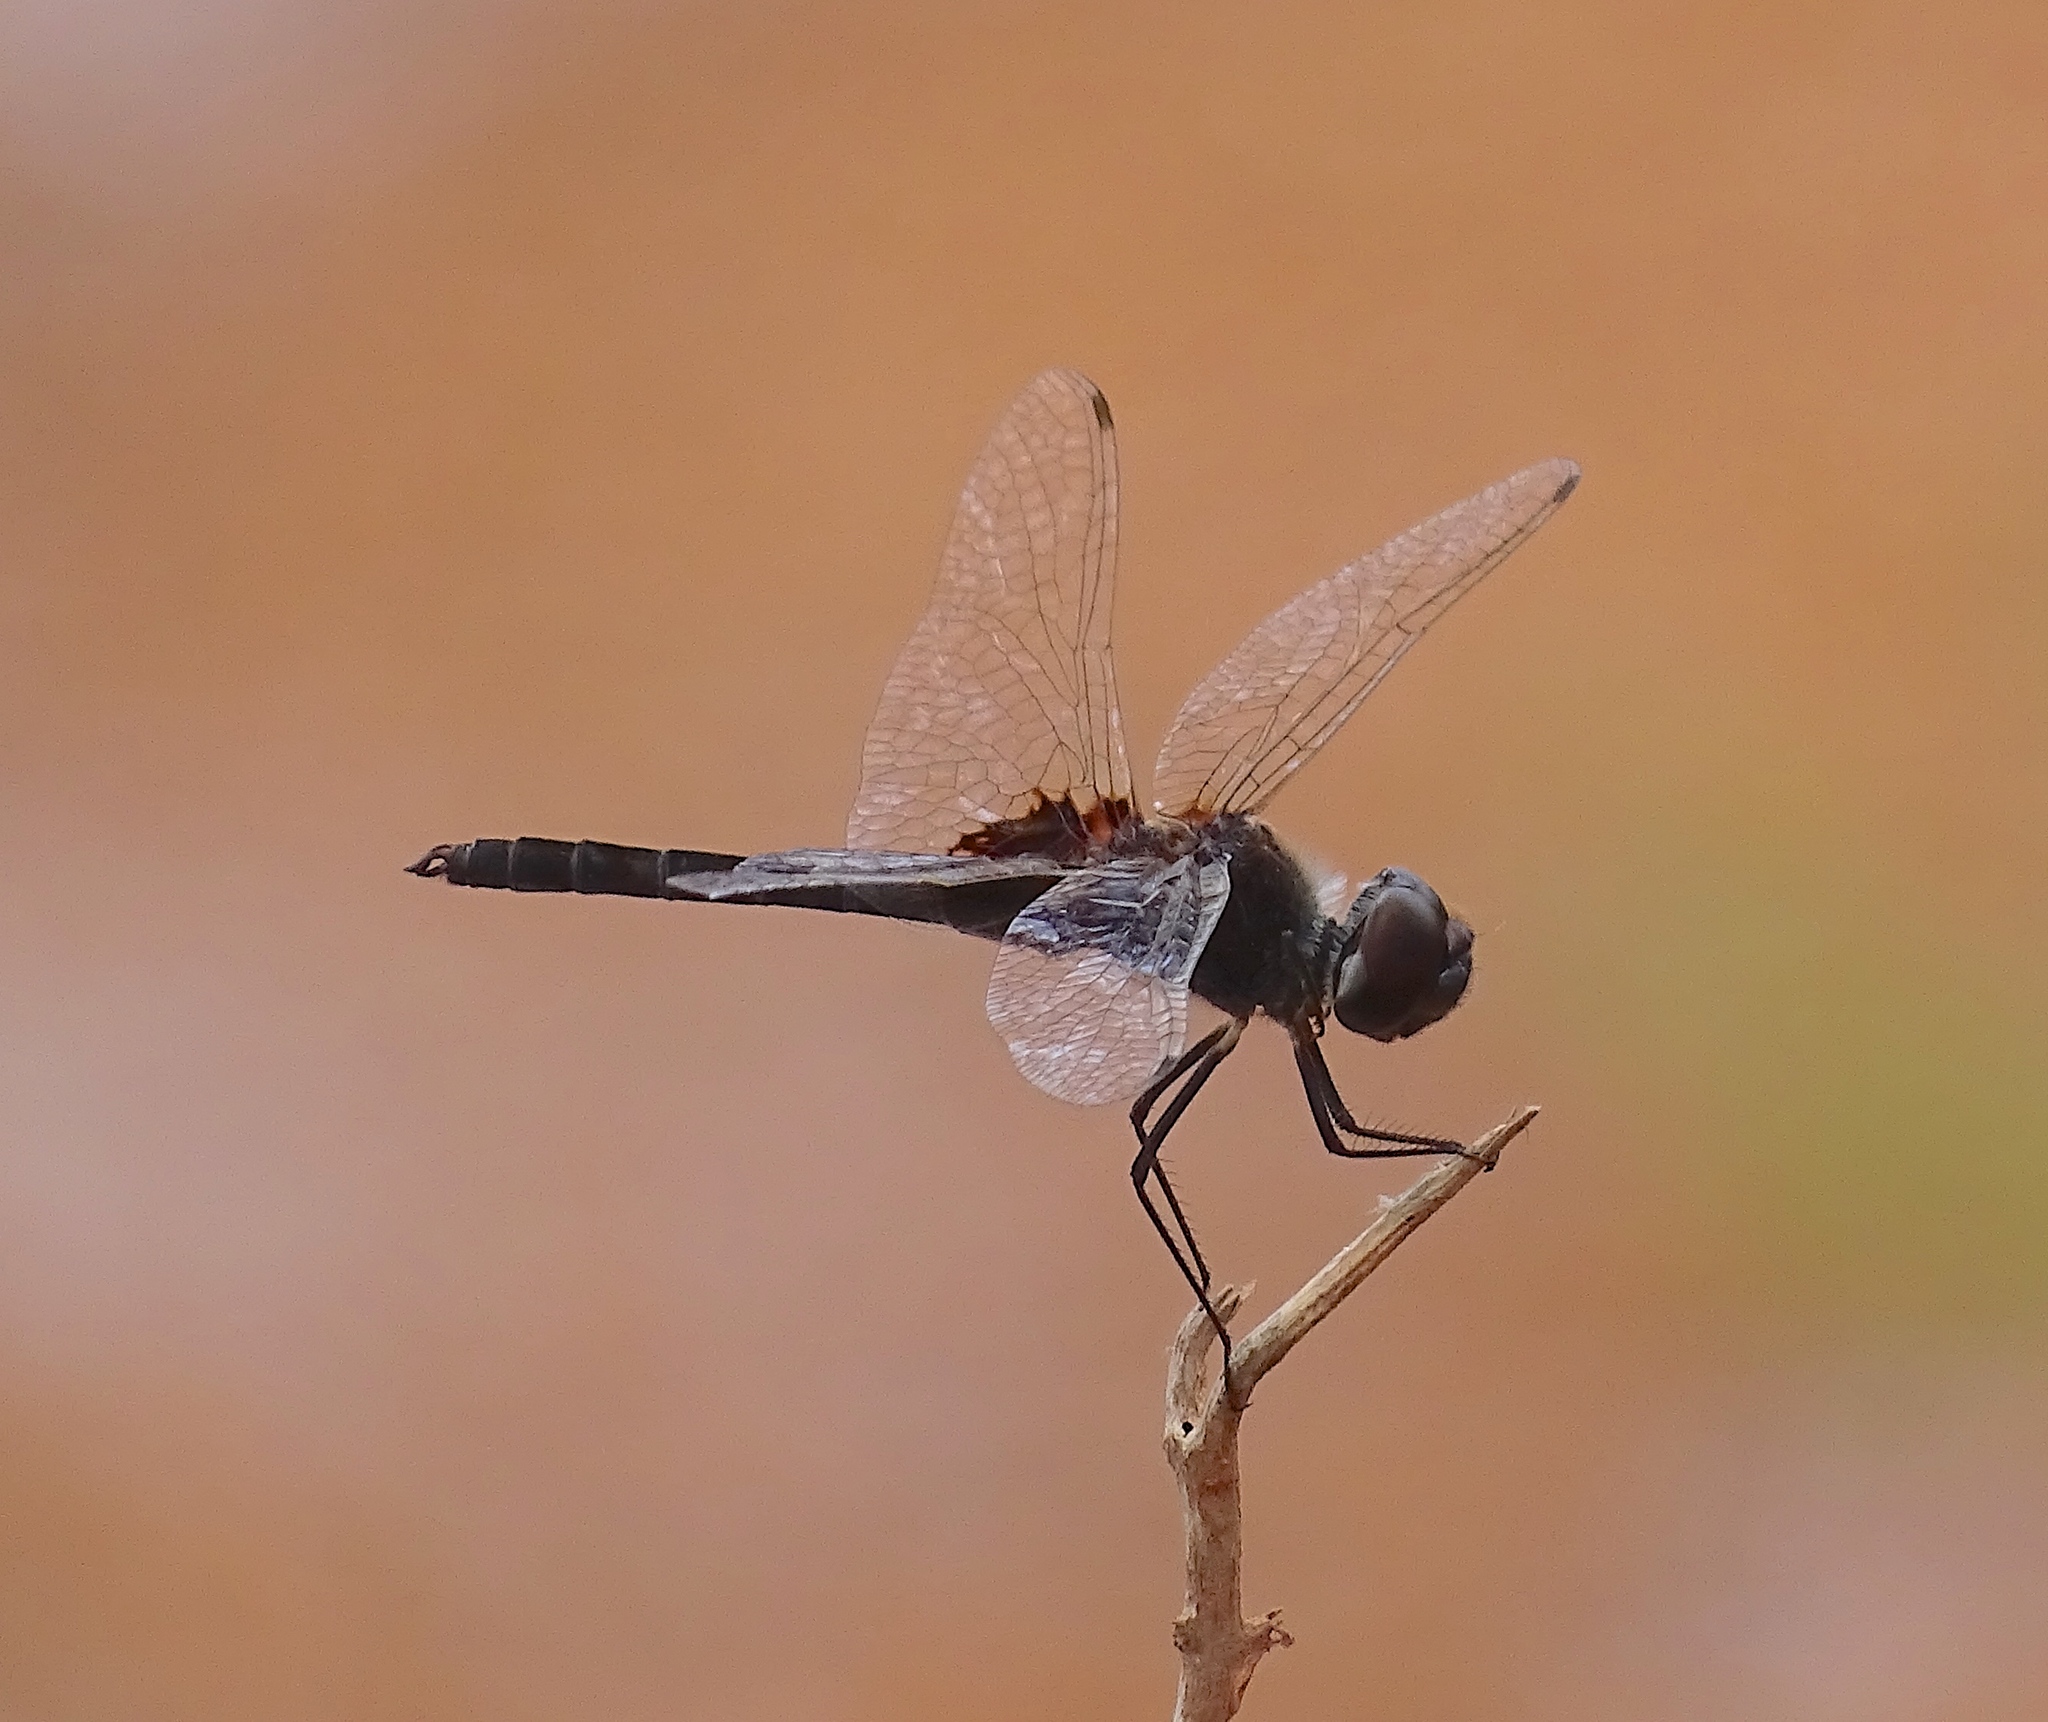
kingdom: Animalia
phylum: Arthropoda
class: Insecta
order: Odonata
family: Libellulidae
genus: Macrodiplax
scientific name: Macrodiplax balteata
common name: Marl pennant
